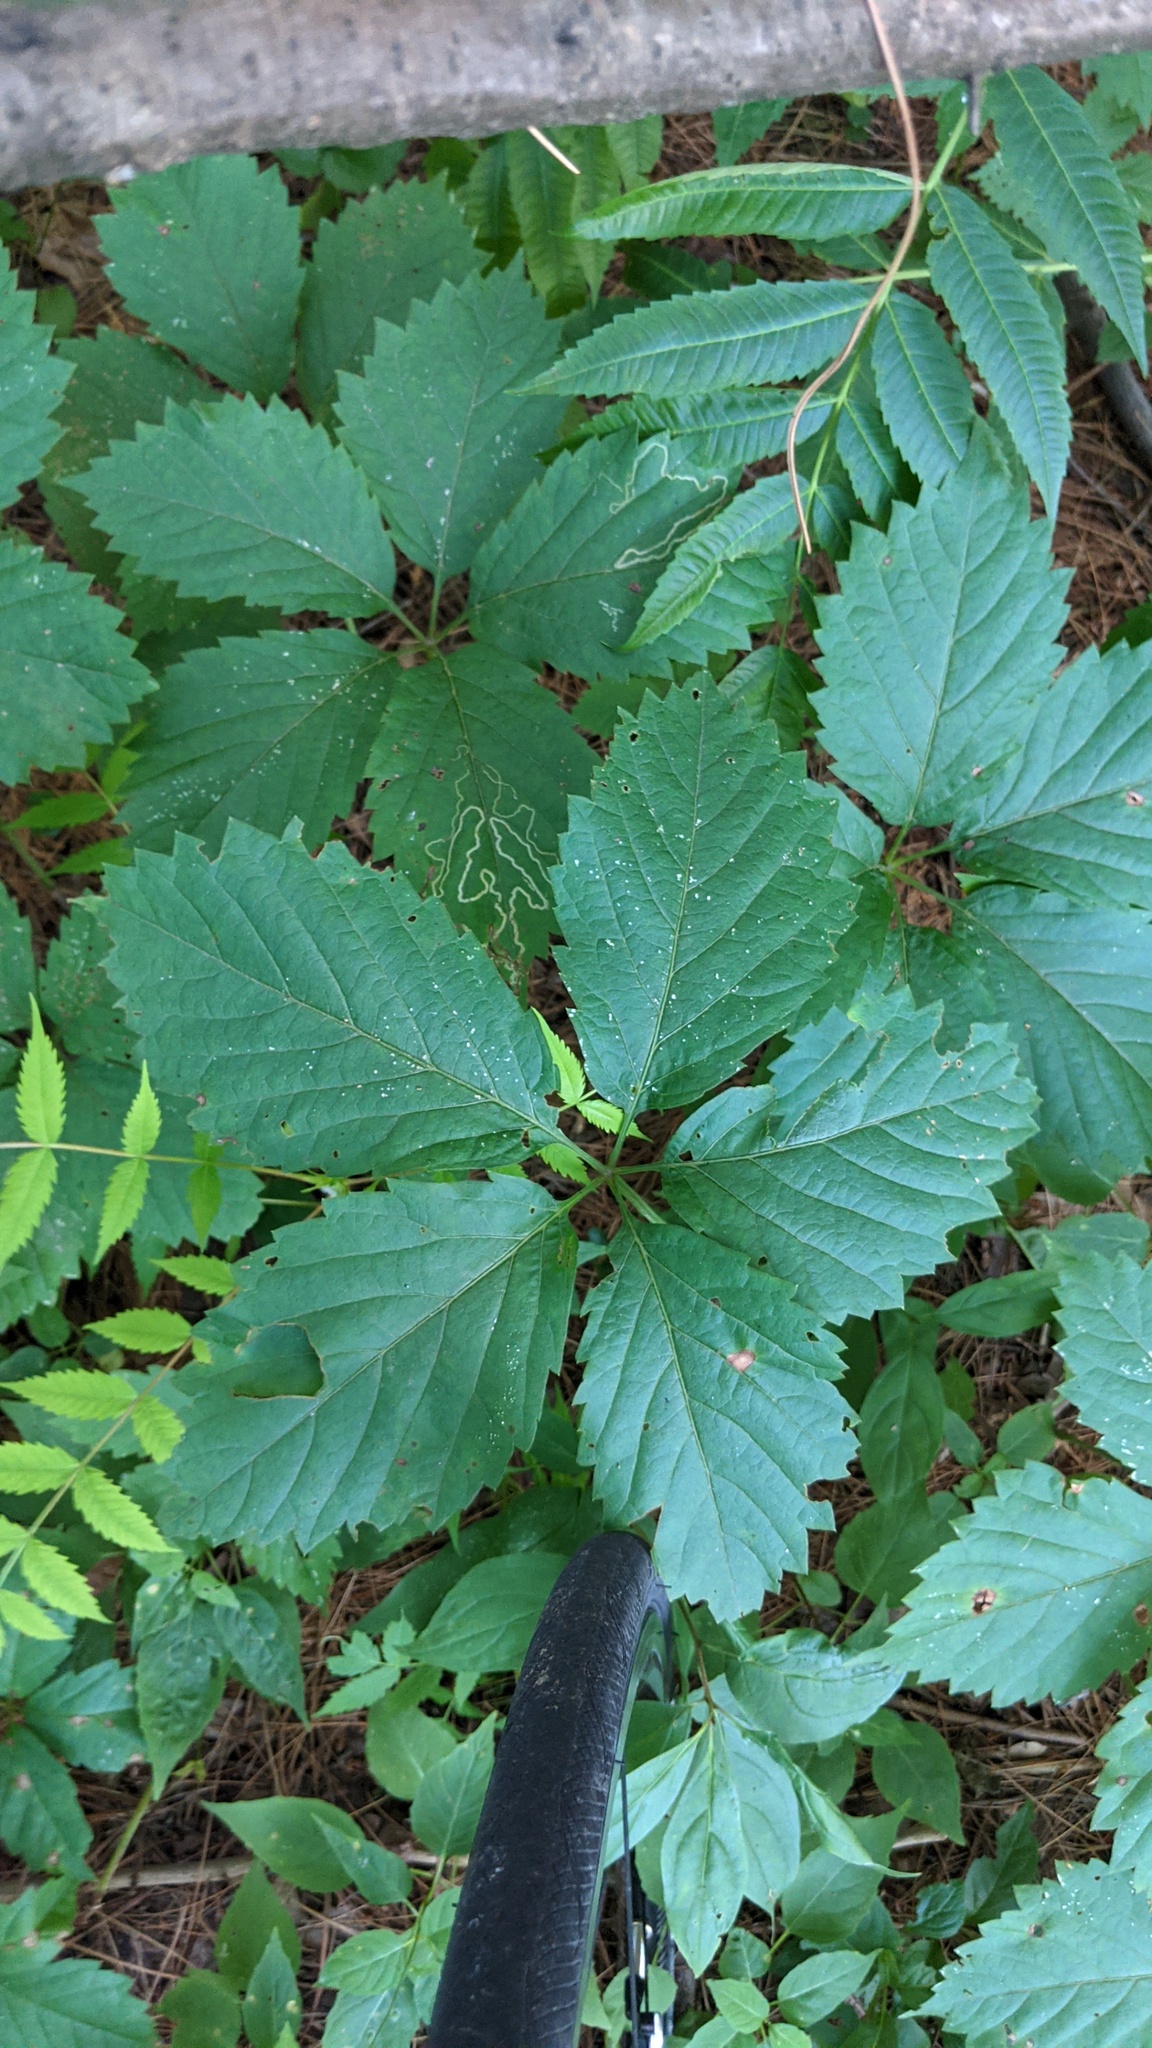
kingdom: Plantae
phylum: Tracheophyta
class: Magnoliopsida
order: Vitales
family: Vitaceae
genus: Parthenocissus
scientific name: Parthenocissus inserta
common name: False virginia-creeper
